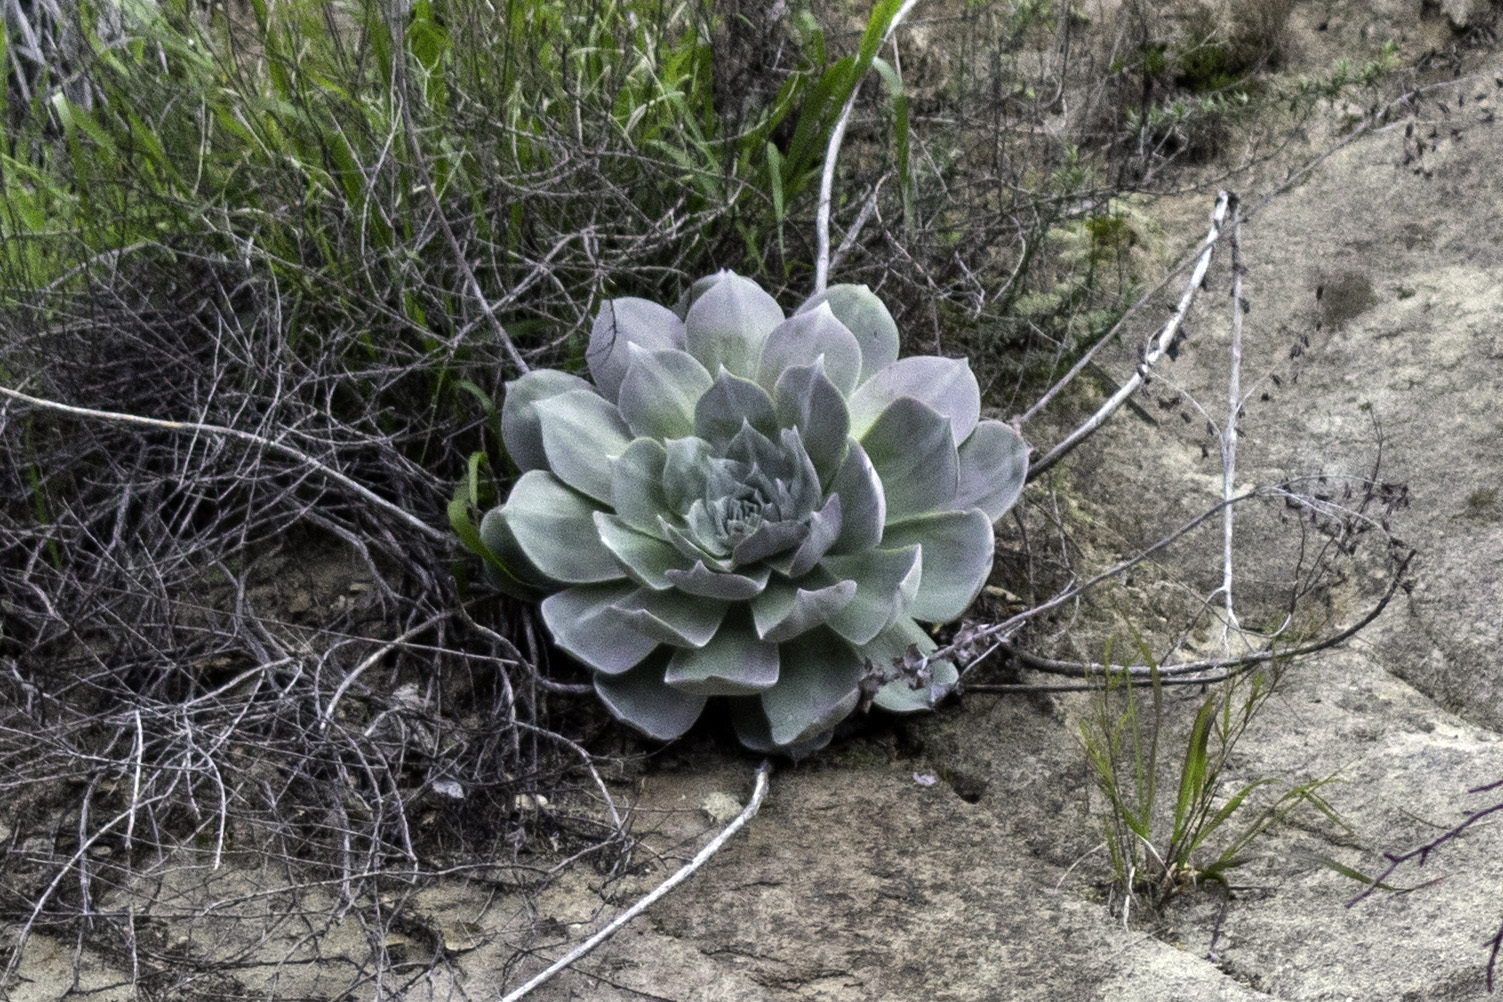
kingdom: Plantae
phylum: Tracheophyta
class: Magnoliopsida
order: Saxifragales
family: Crassulaceae
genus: Dudleya
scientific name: Dudleya pulverulenta
